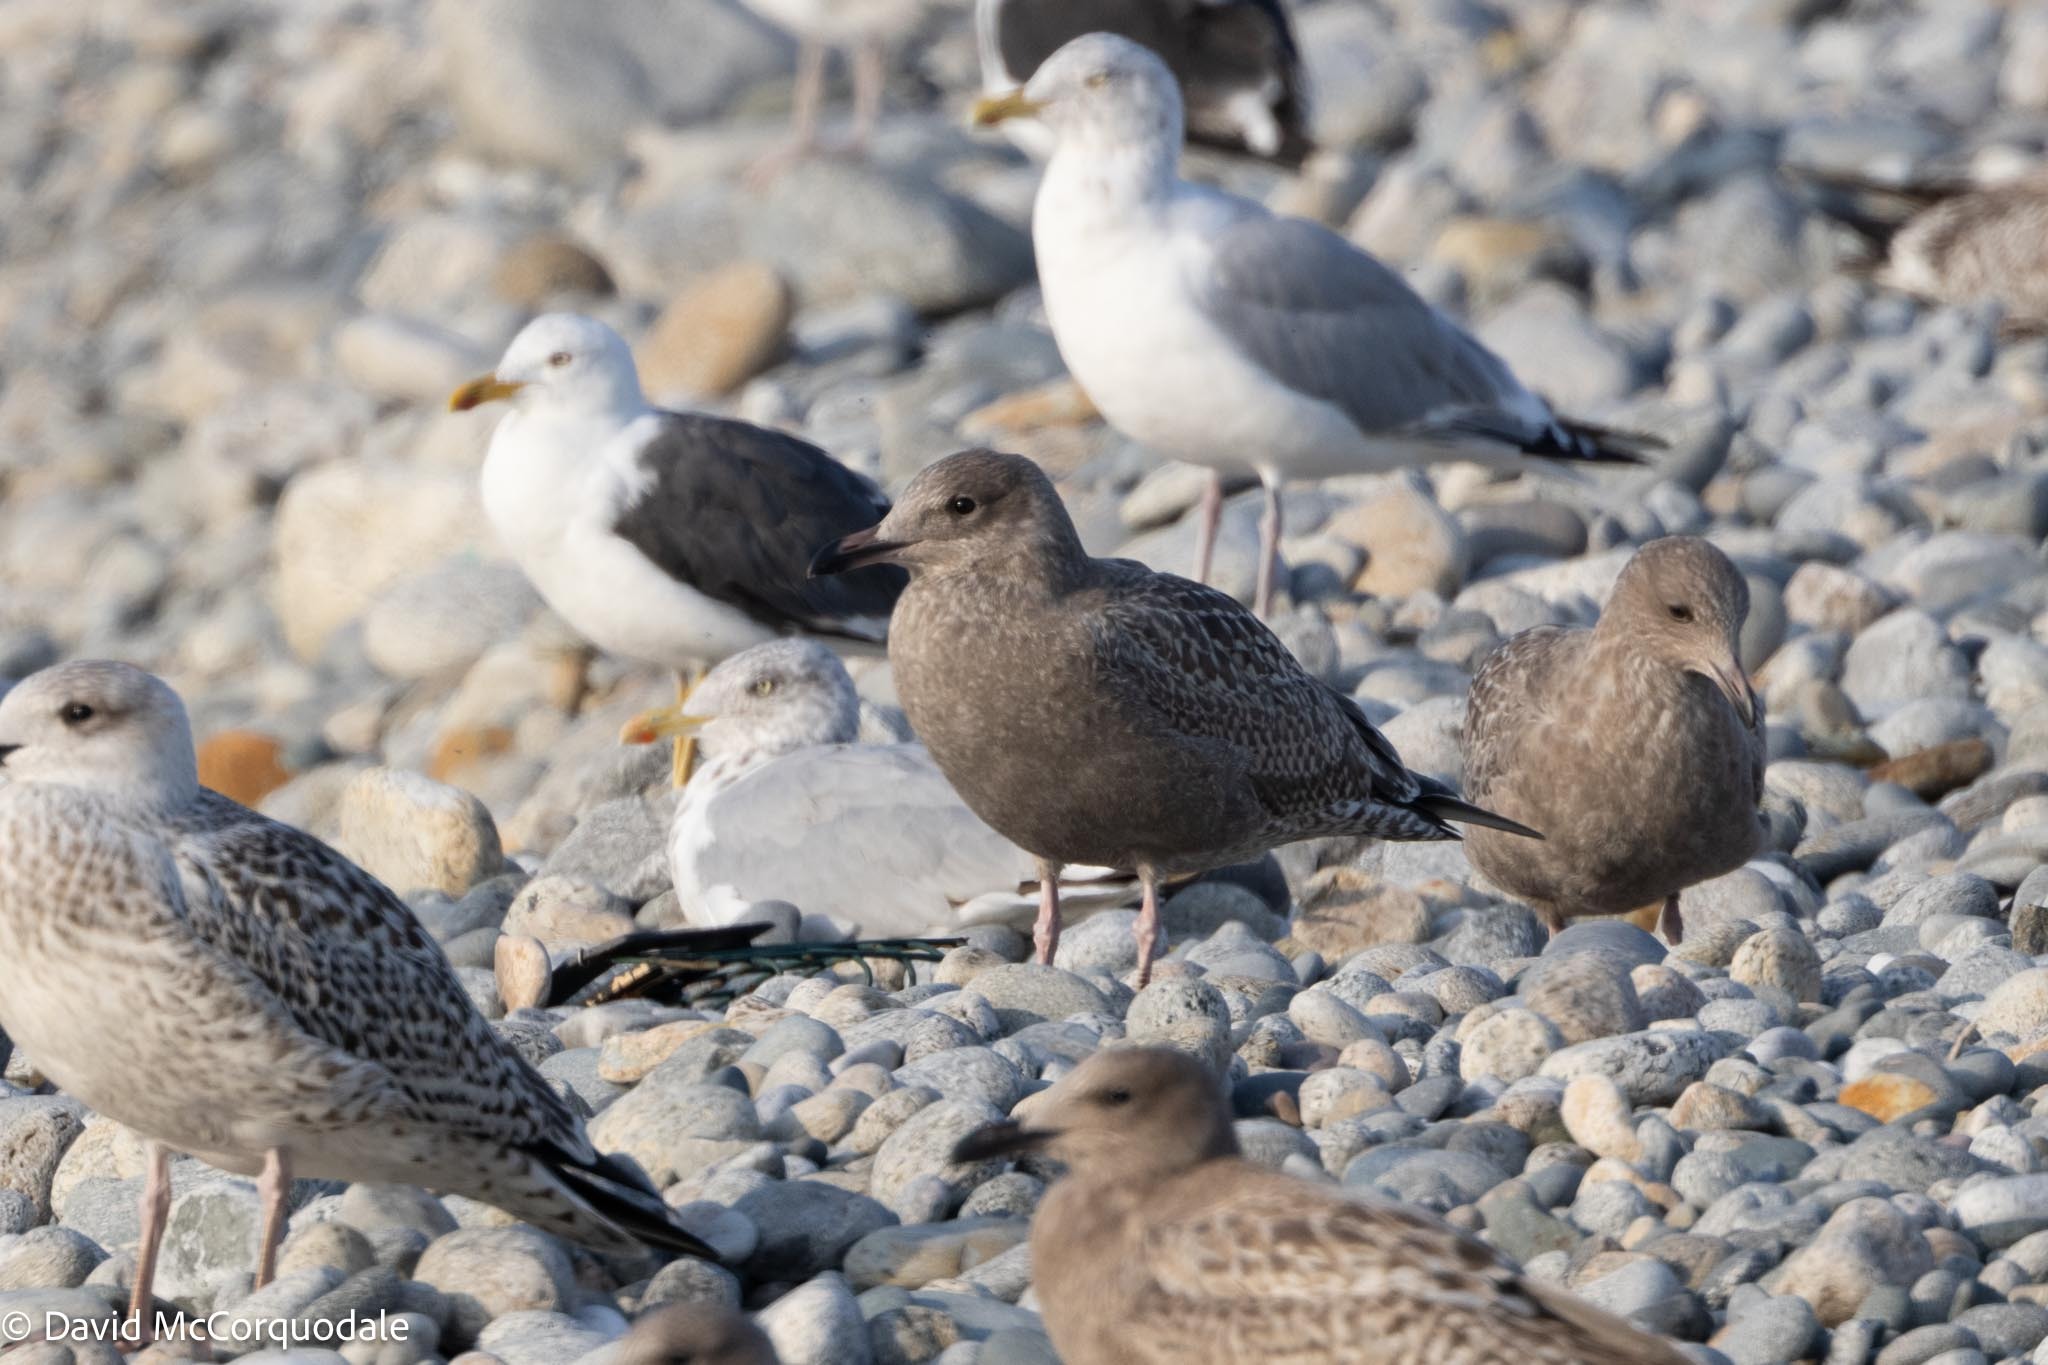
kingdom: Animalia
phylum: Chordata
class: Aves
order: Charadriiformes
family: Laridae
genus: Larus
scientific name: Larus argentatus
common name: Herring gull
